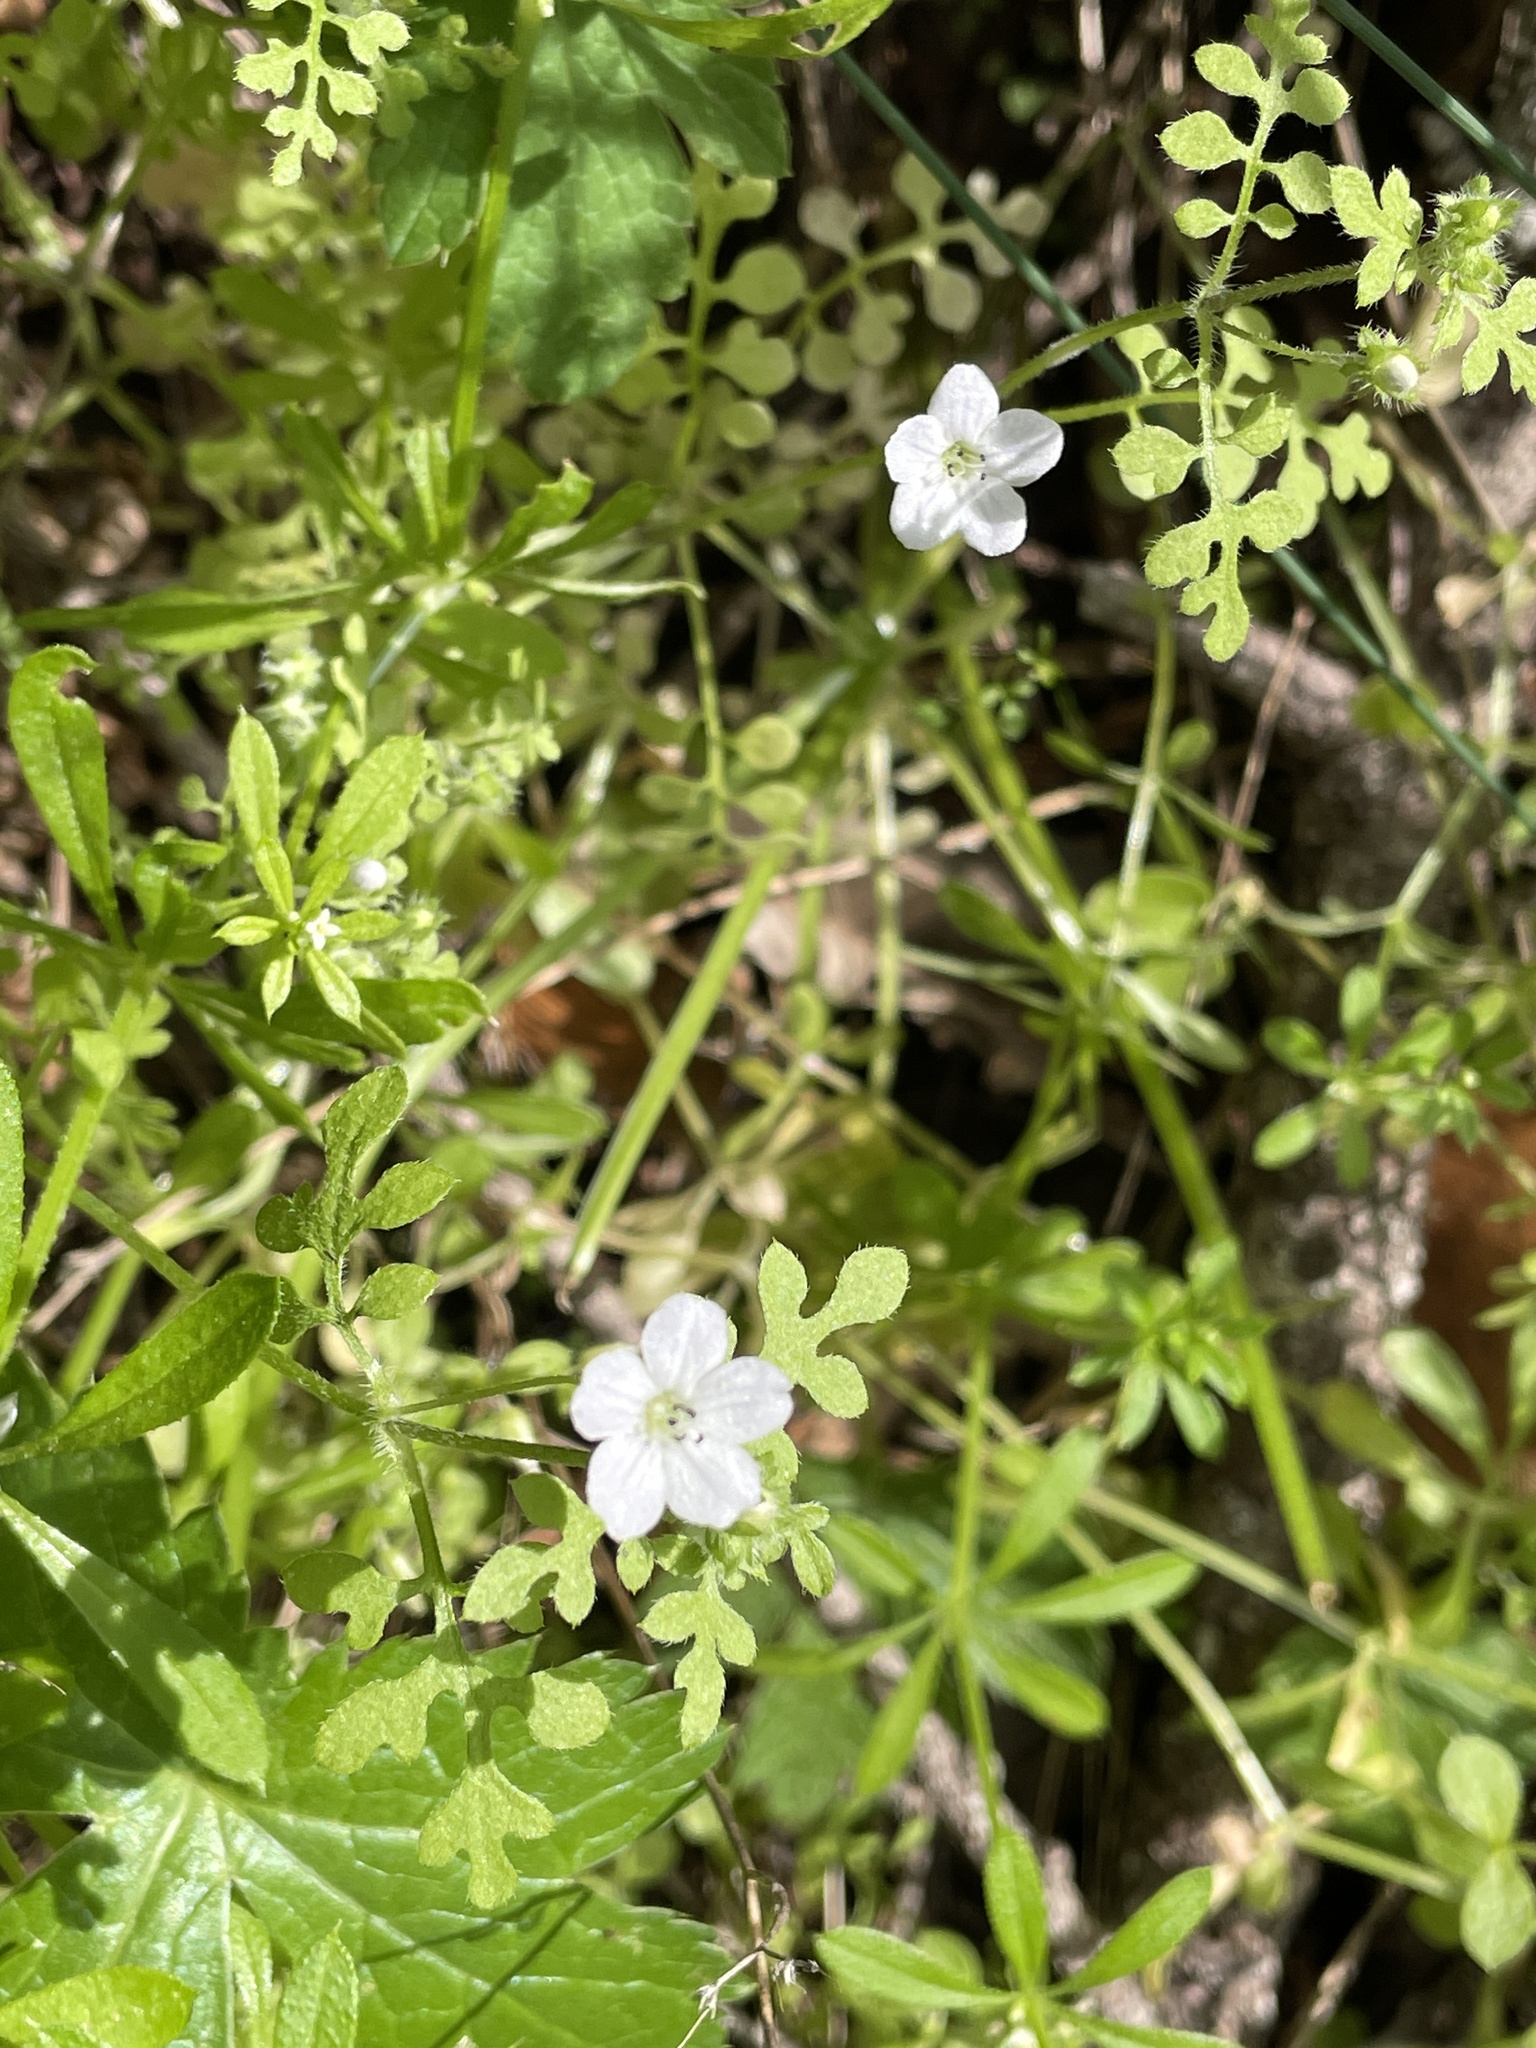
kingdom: Plantae
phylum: Tracheophyta
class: Magnoliopsida
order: Boraginales
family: Hydrophyllaceae
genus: Nemophila
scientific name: Nemophila heterophylla
